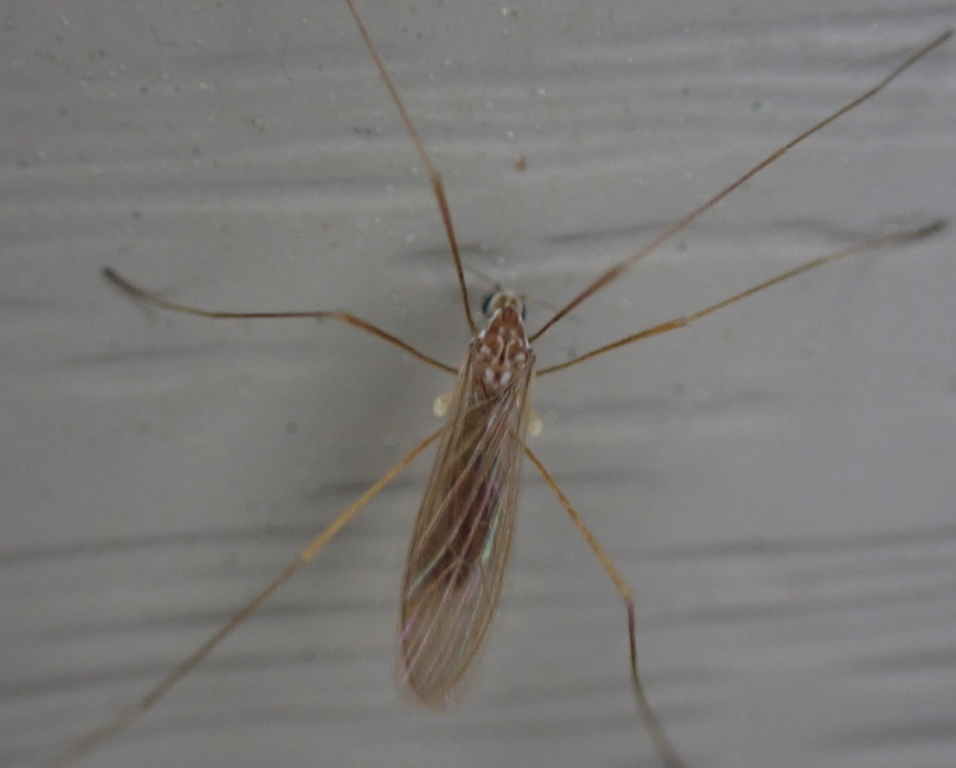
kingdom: Animalia
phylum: Arthropoda
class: Insecta
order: Diptera
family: Limoniidae
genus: Erioptera
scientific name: Erioptera vespertina
